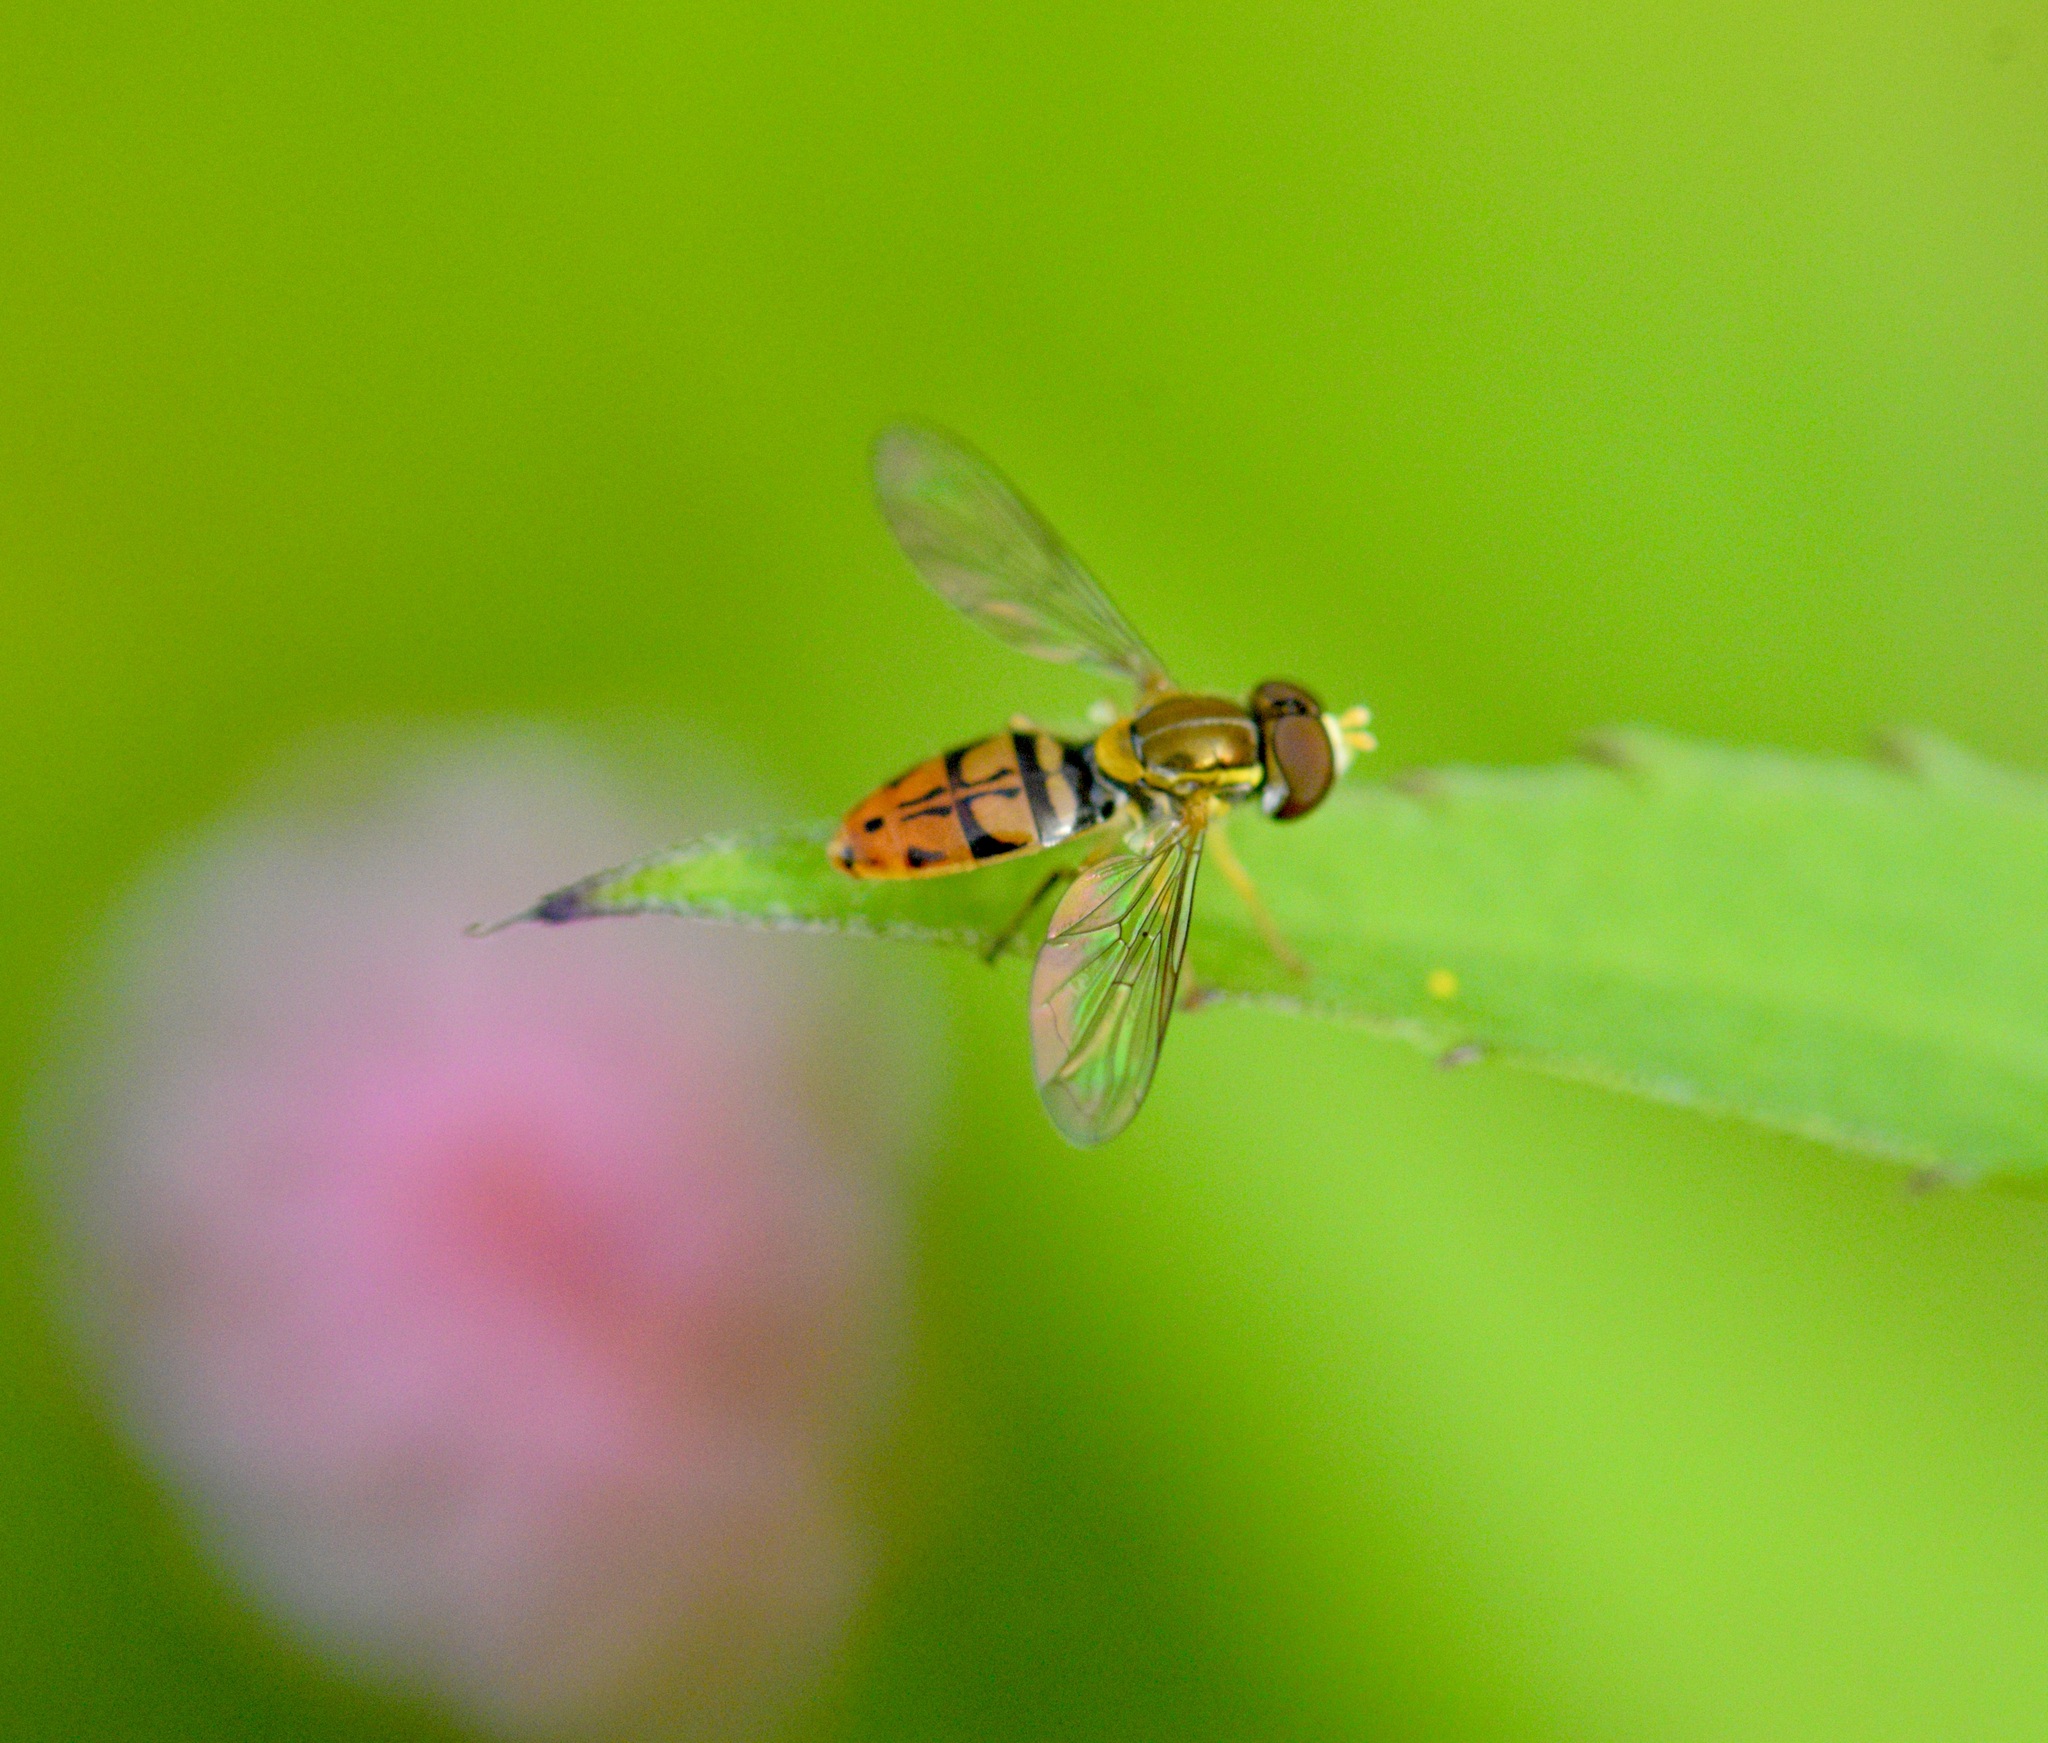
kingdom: Animalia
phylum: Arthropoda
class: Insecta
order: Diptera
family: Syrphidae
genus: Toxomerus
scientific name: Toxomerus marginatus
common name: Syrphid fly
